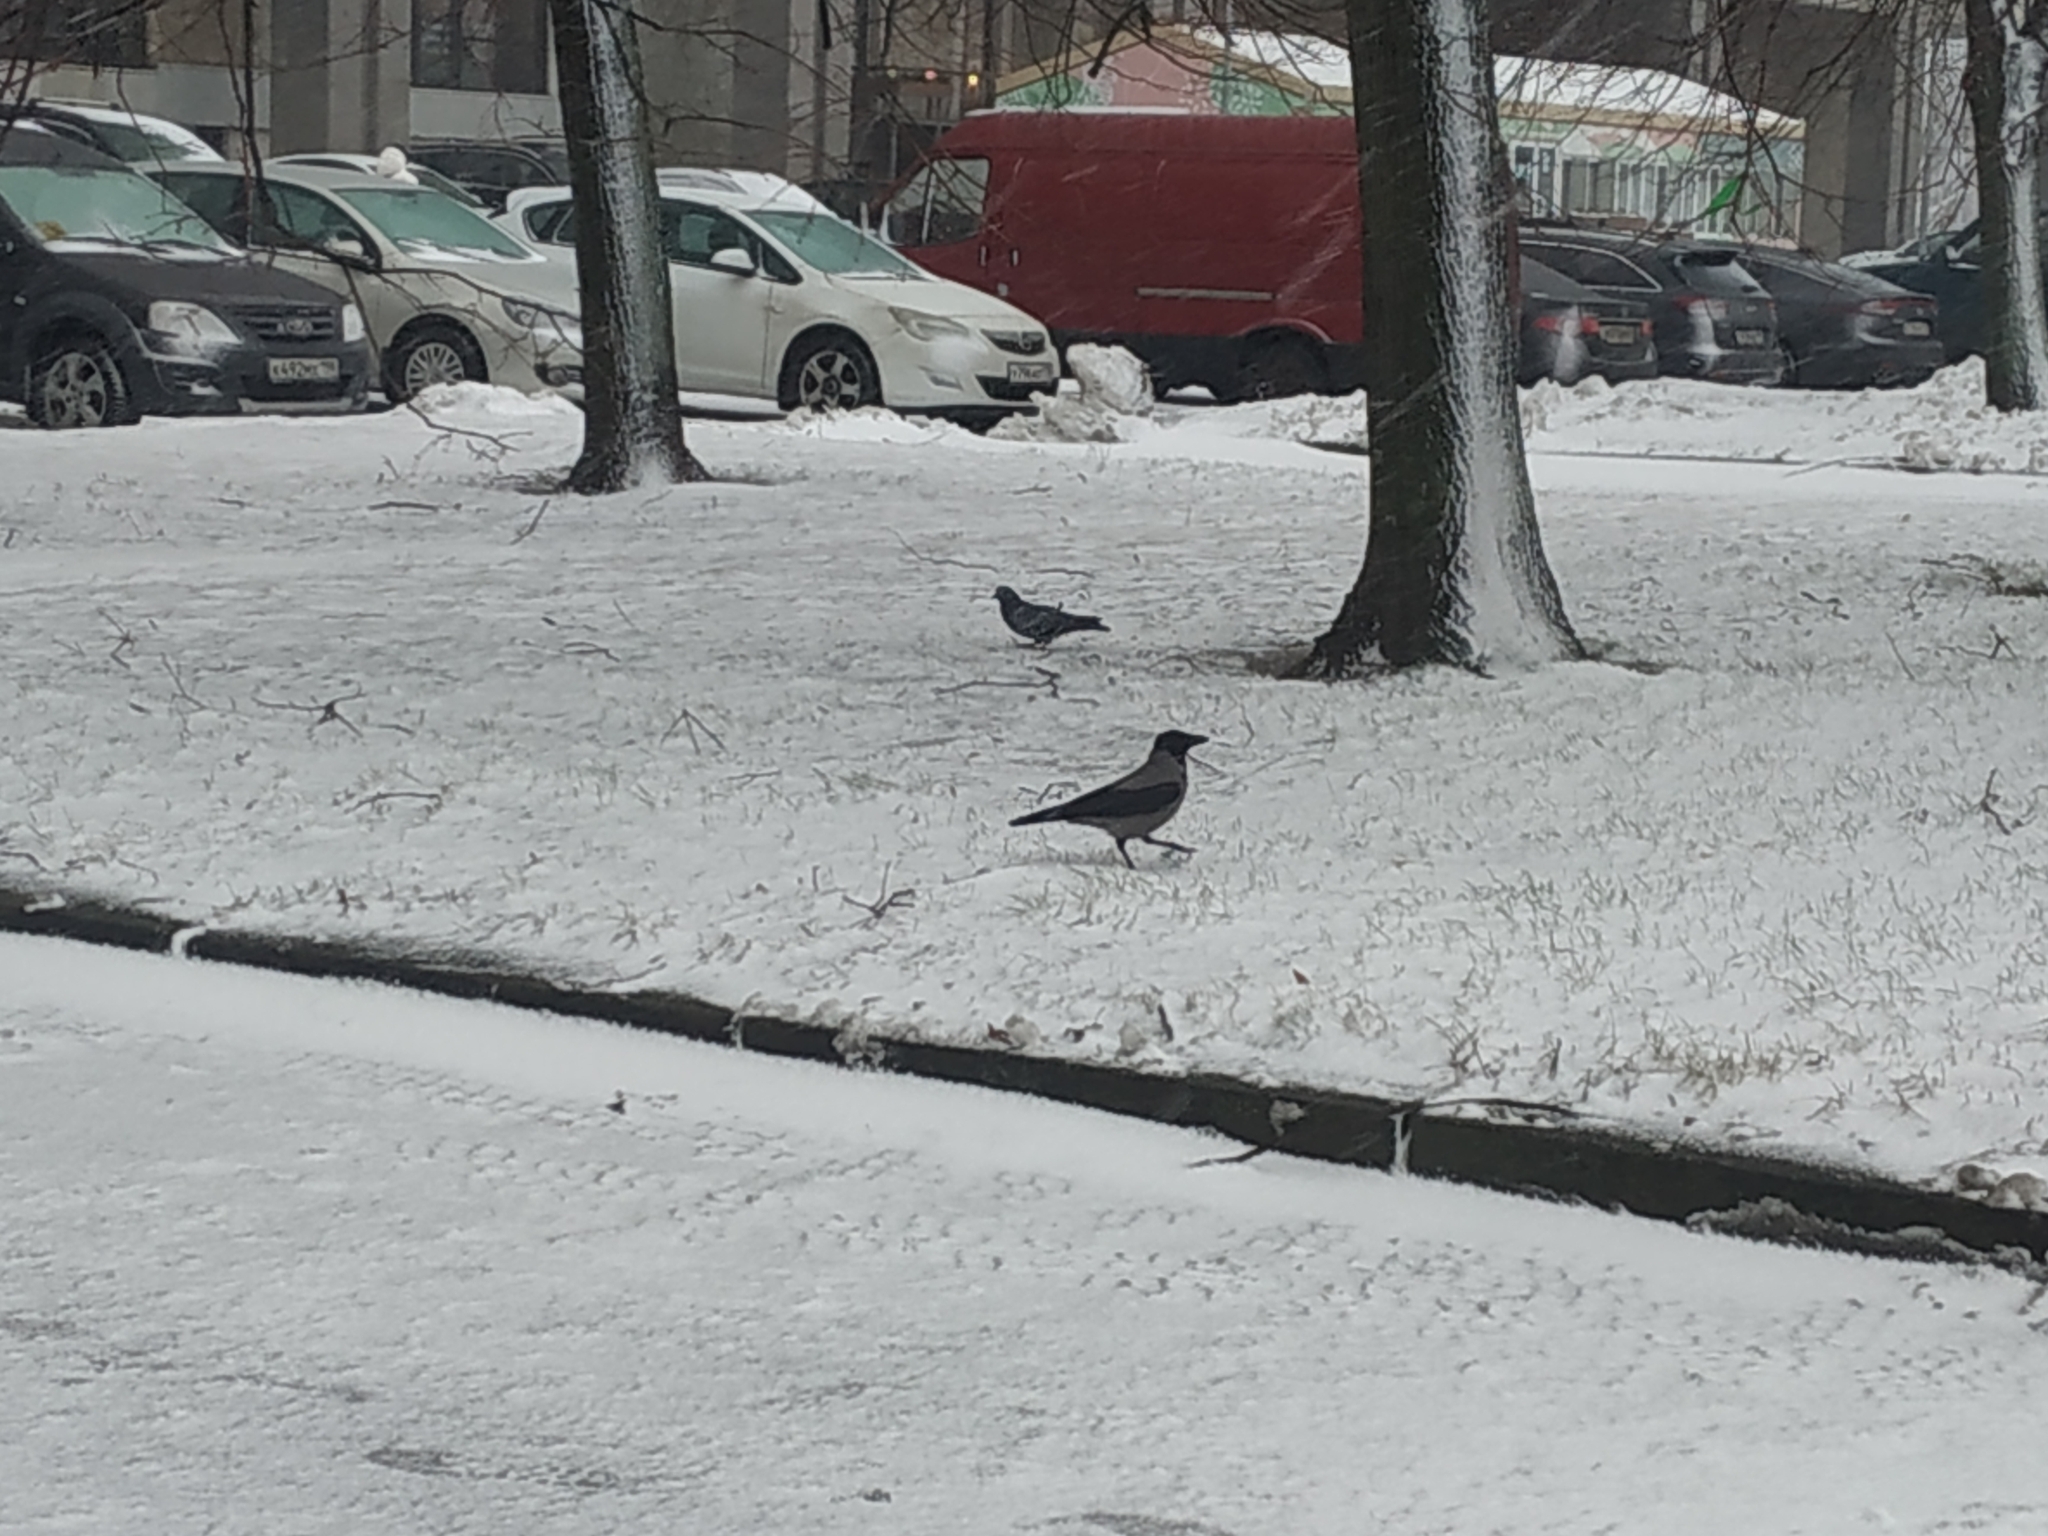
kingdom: Animalia
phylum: Chordata
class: Aves
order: Passeriformes
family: Corvidae
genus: Corvus
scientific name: Corvus cornix
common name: Hooded crow
